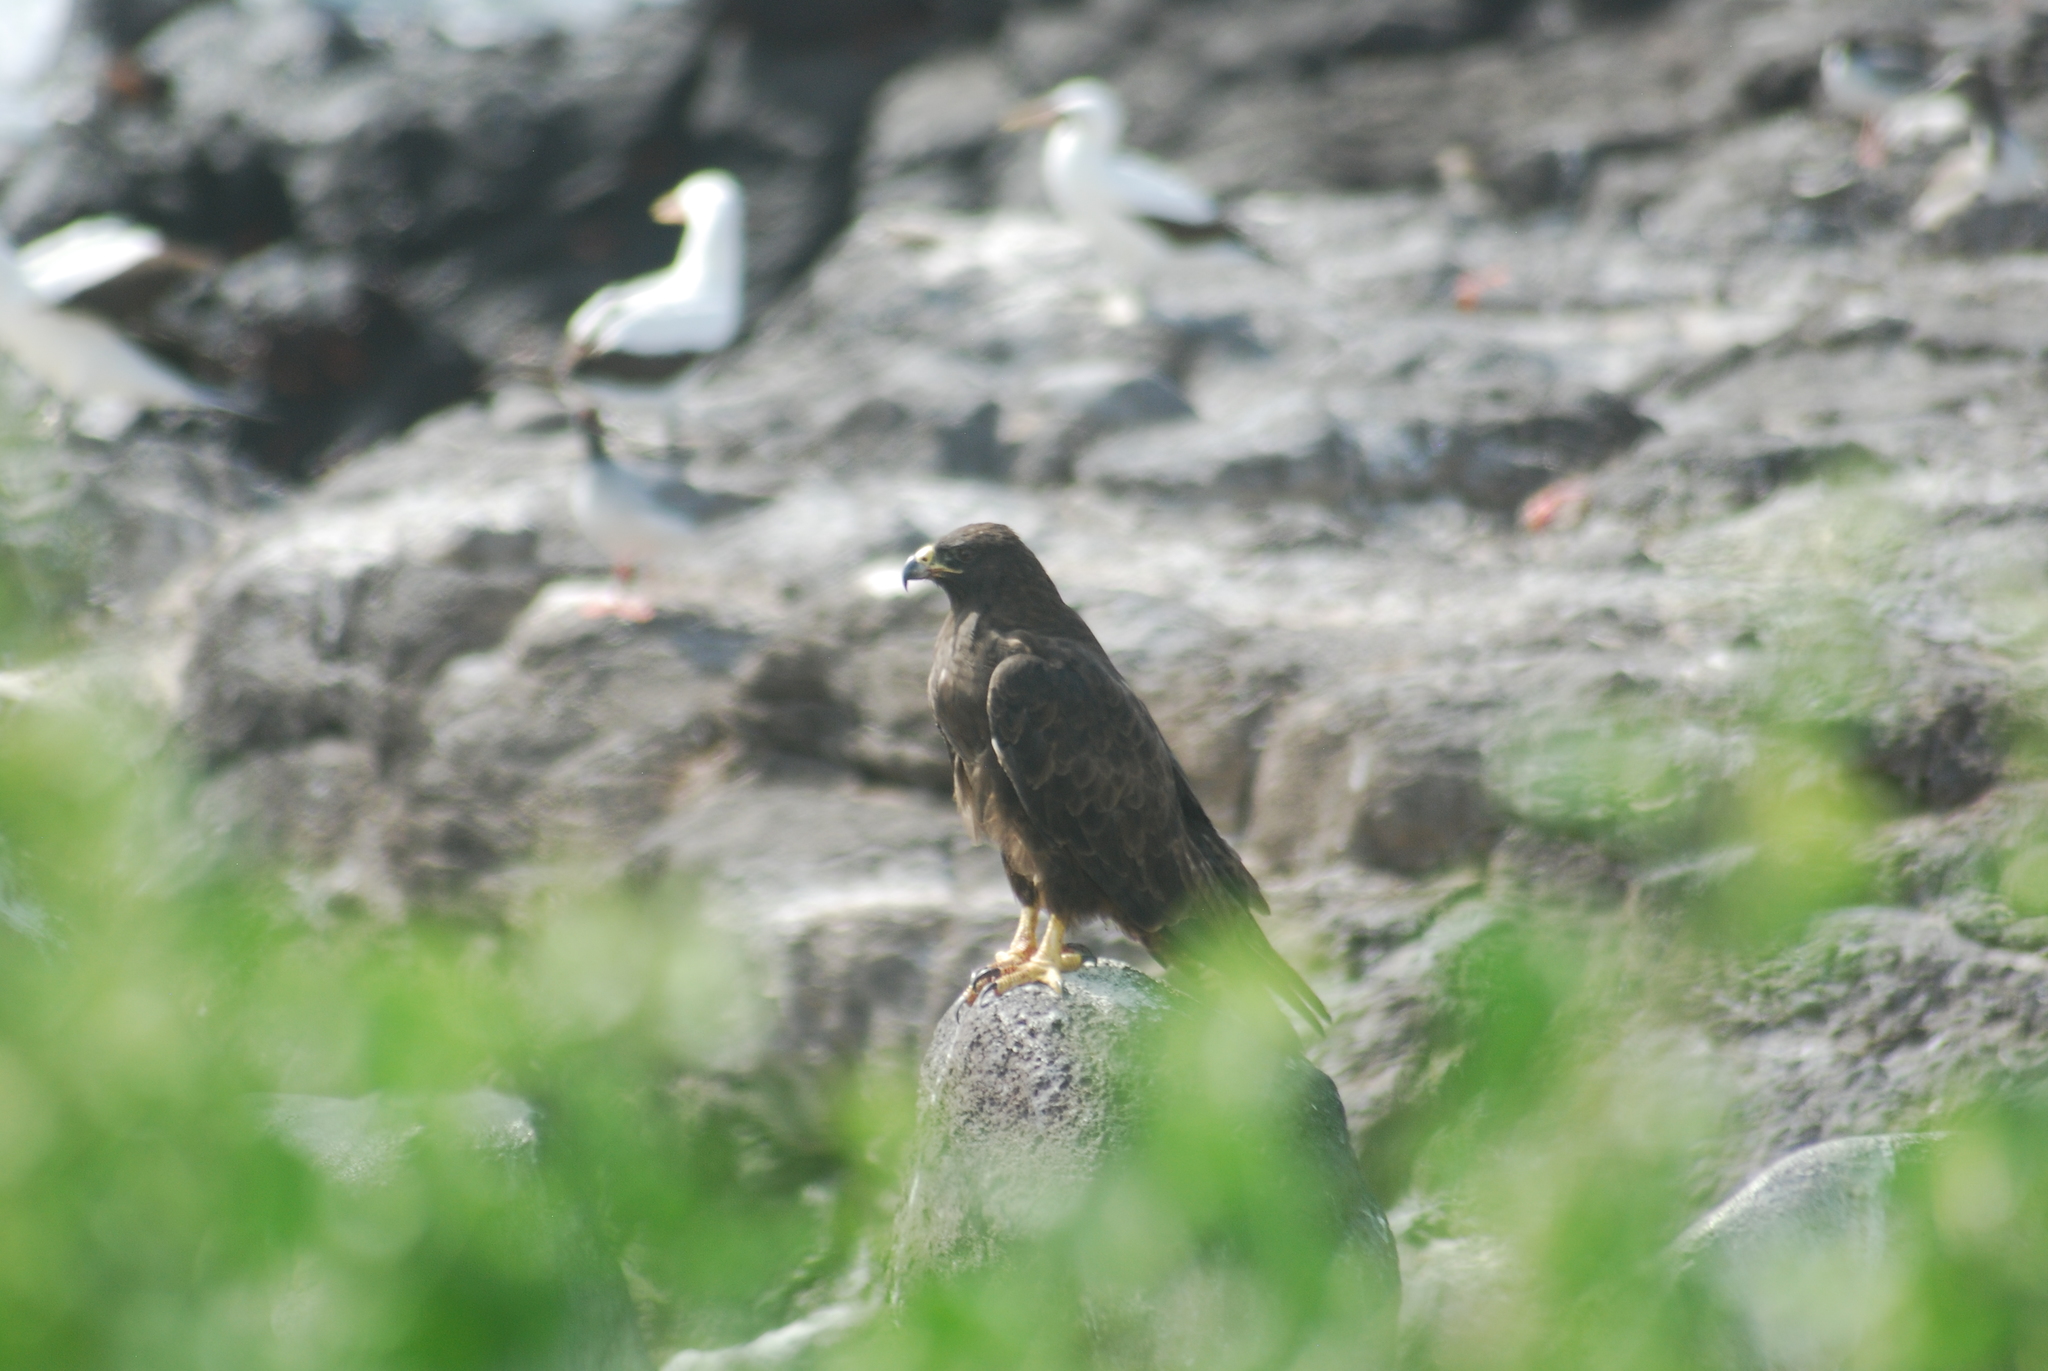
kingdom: Animalia
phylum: Chordata
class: Aves
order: Accipitriformes
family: Accipitridae
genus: Buteo
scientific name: Buteo galapagoensis
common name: Galapagos hawk
